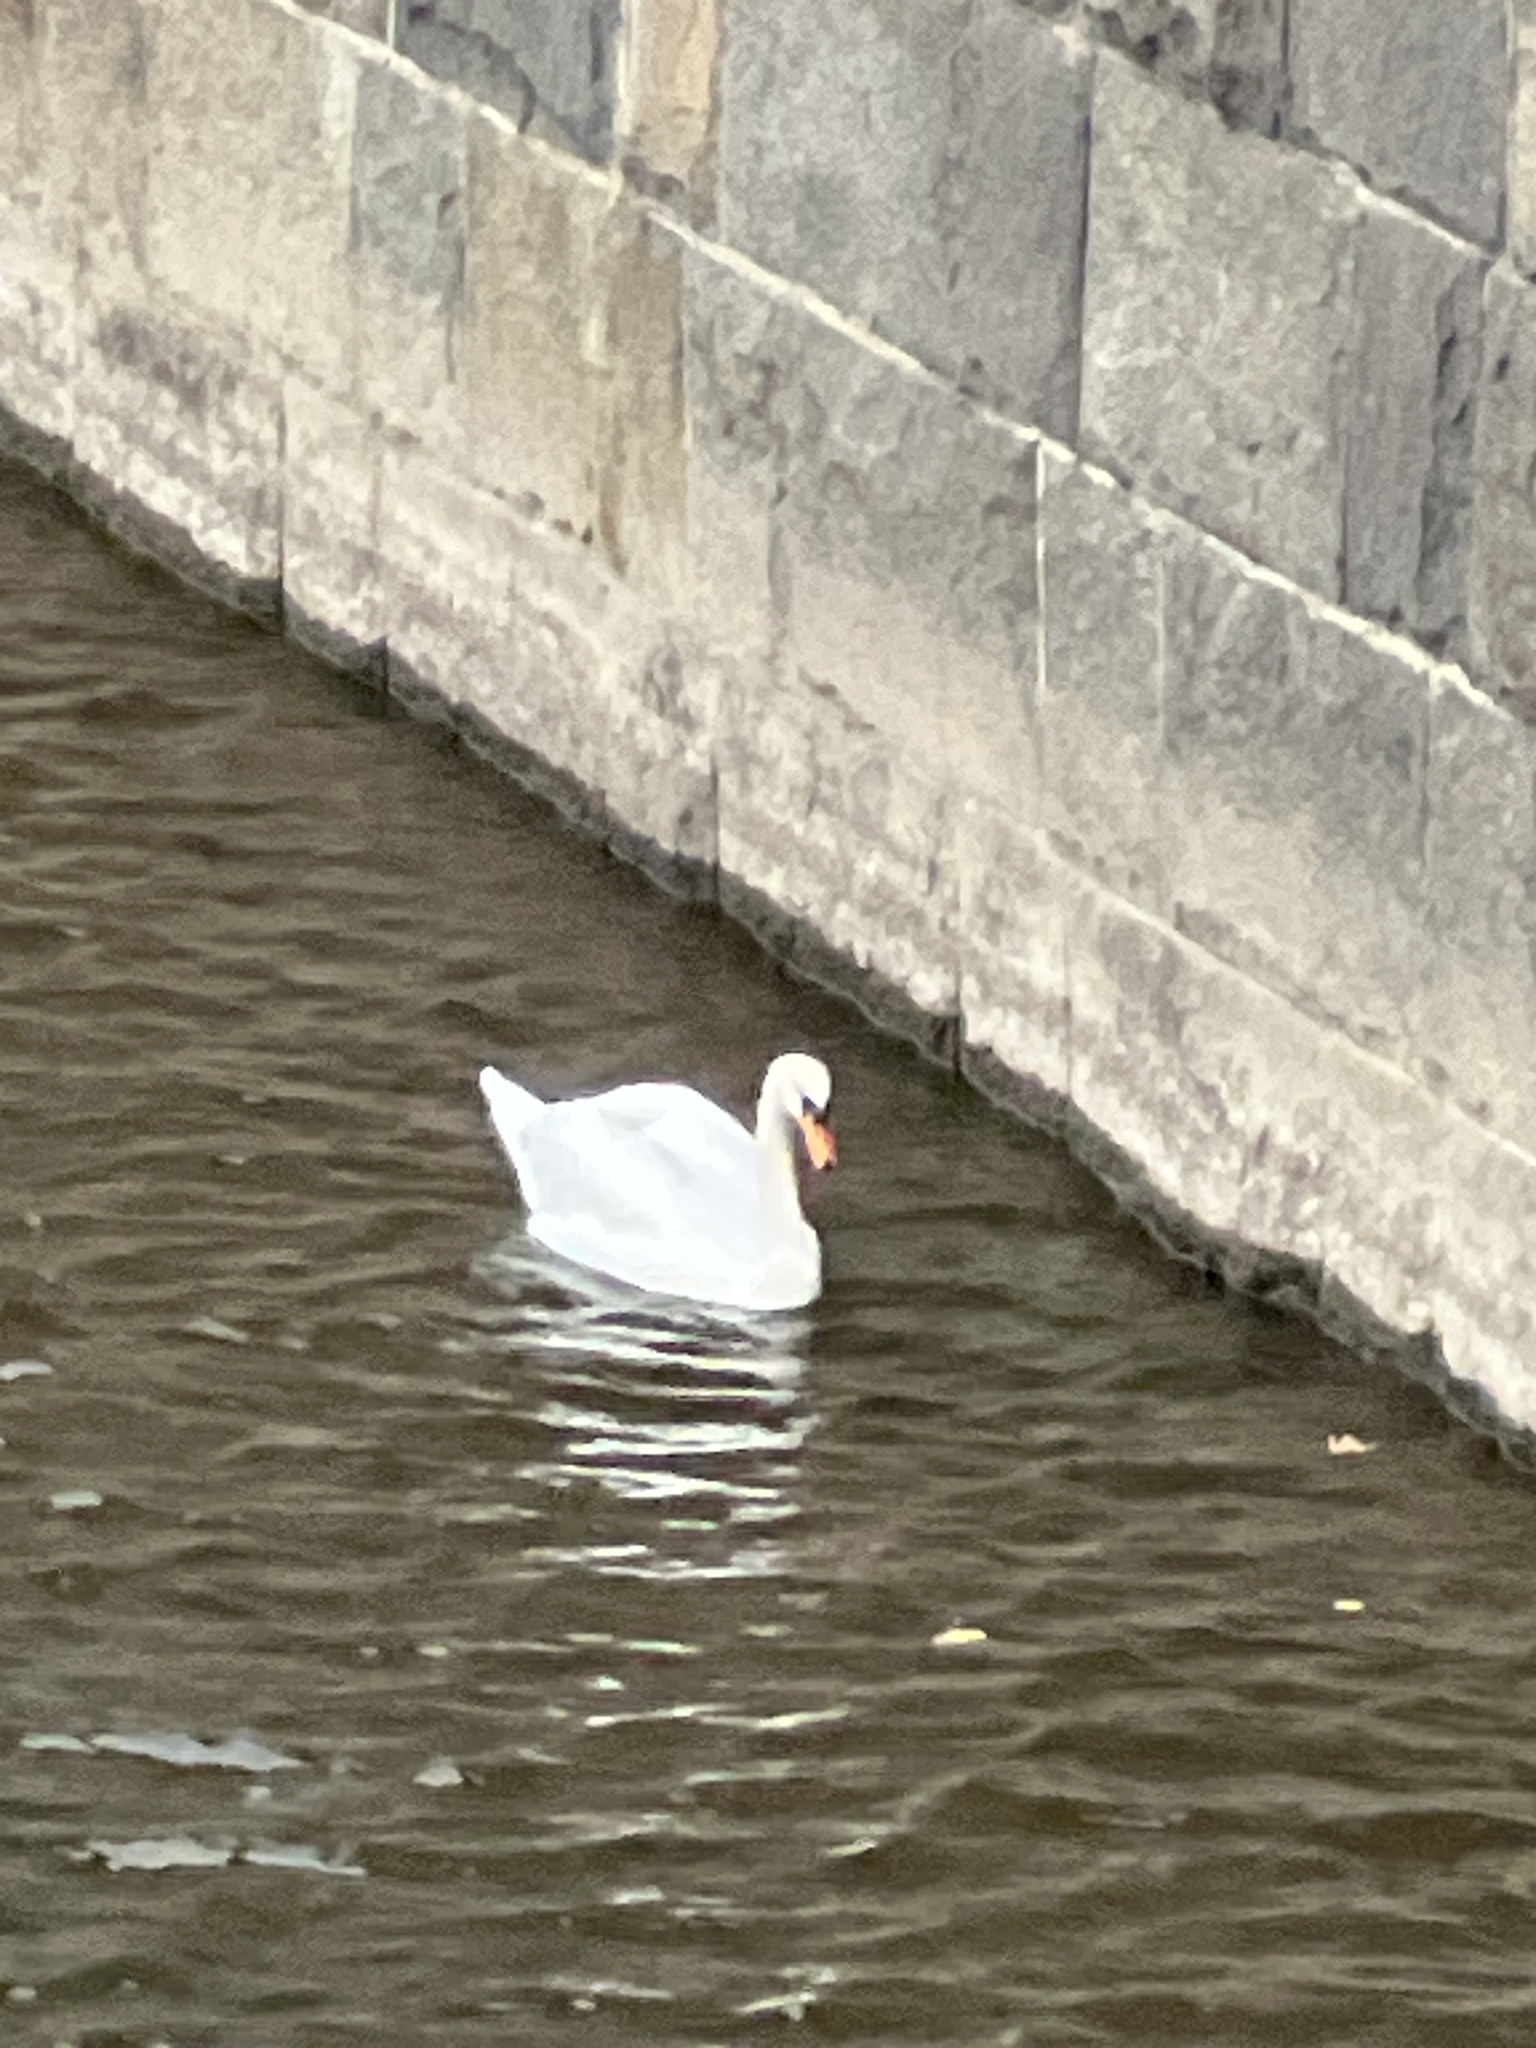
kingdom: Animalia
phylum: Chordata
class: Aves
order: Anseriformes
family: Anatidae
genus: Cygnus
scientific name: Cygnus olor
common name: Mute swan
